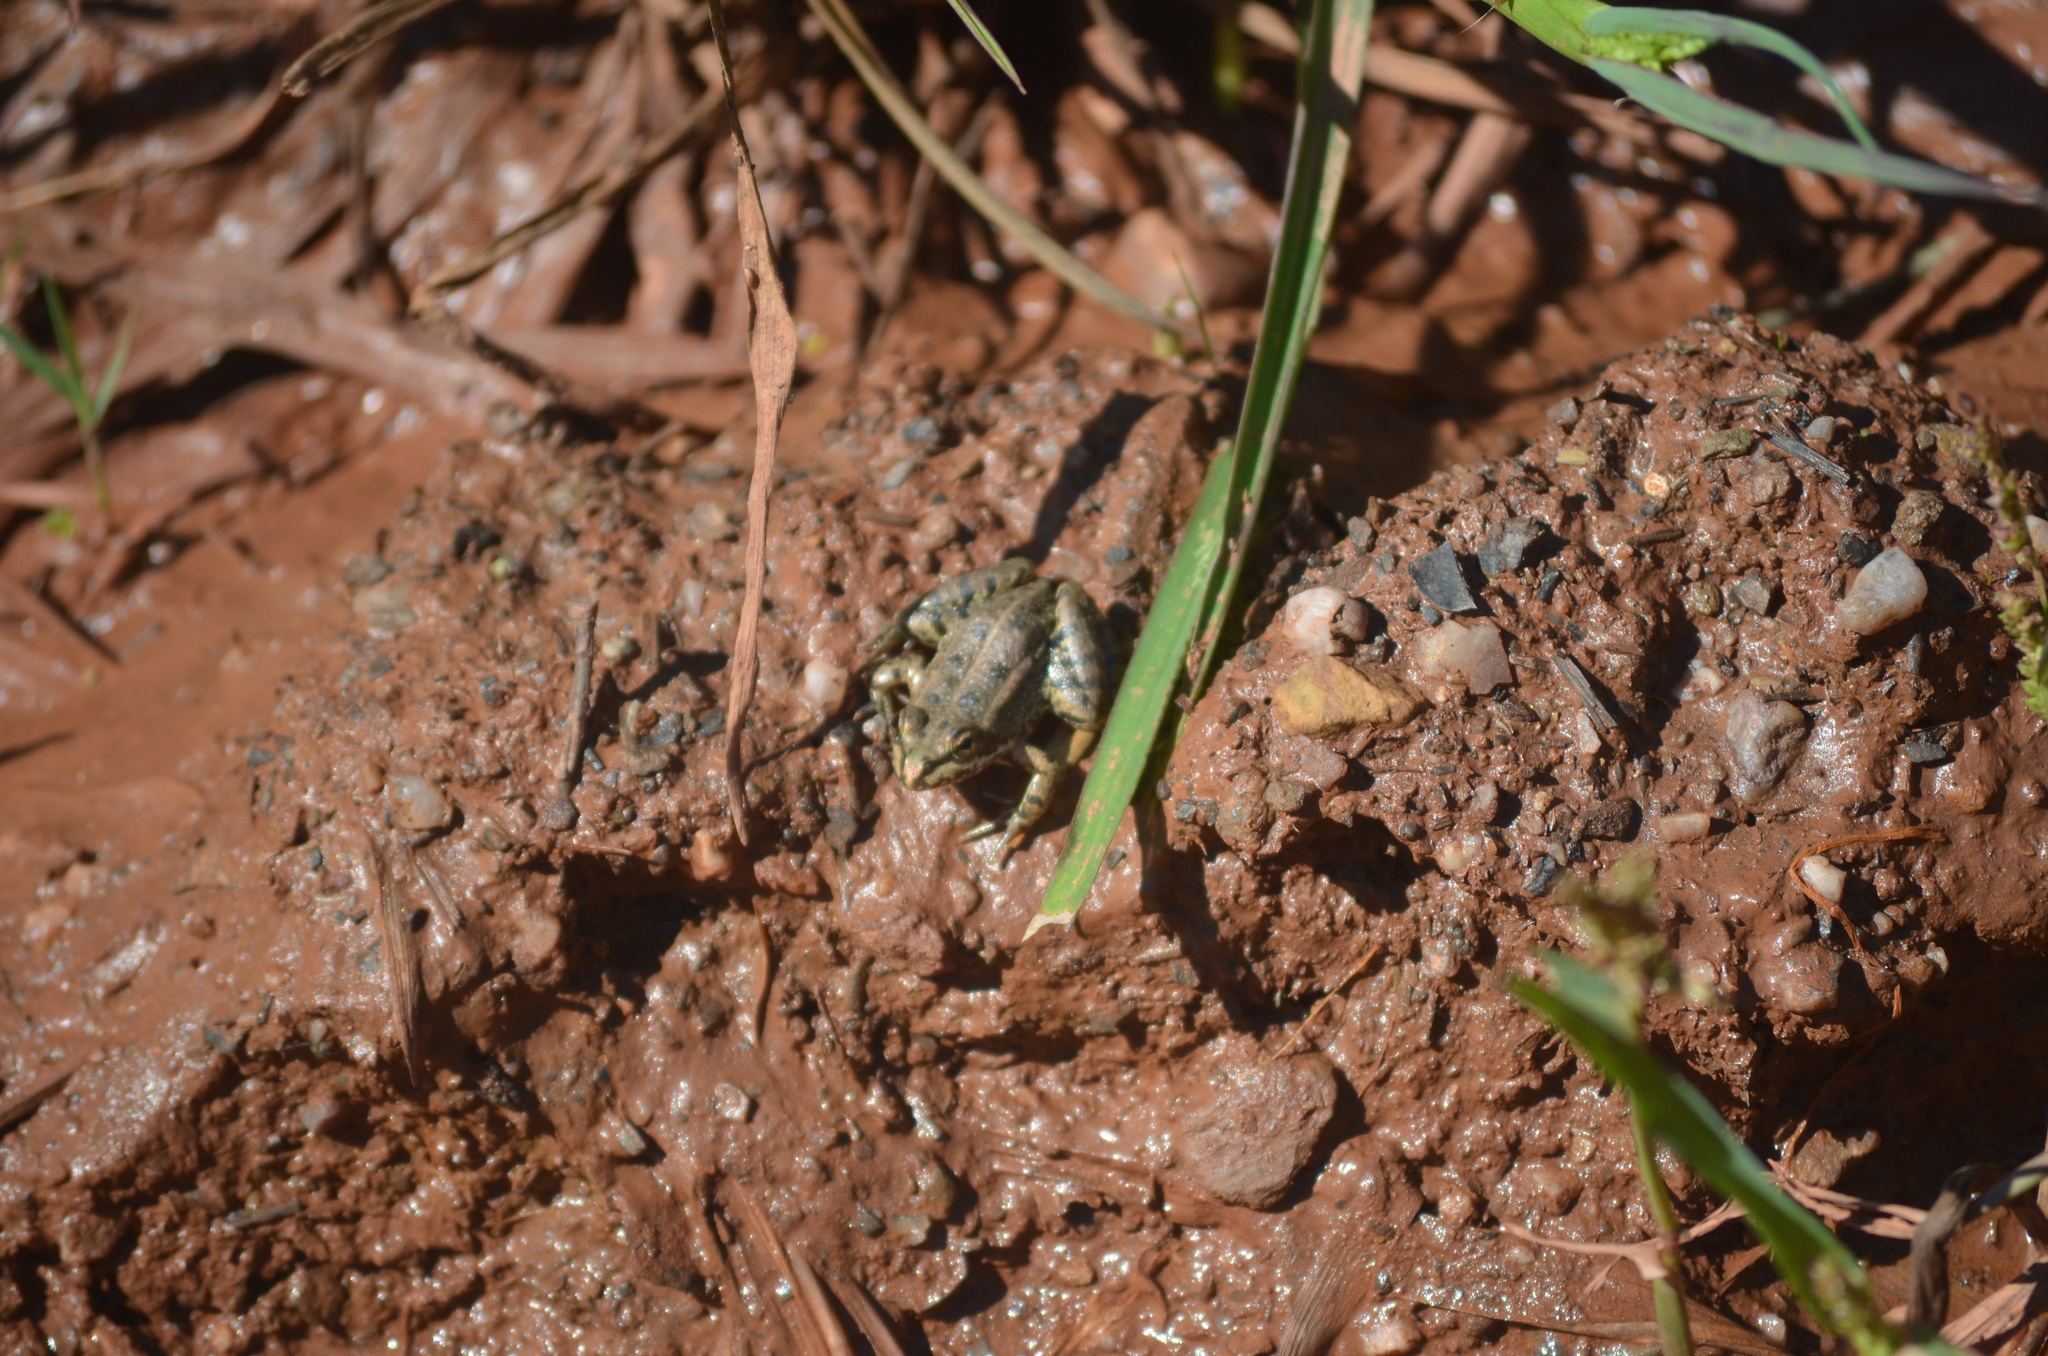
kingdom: Animalia
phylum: Chordata
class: Amphibia
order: Anura
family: Ranidae
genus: Pelophylax
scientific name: Pelophylax perezi
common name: Perez's frog
